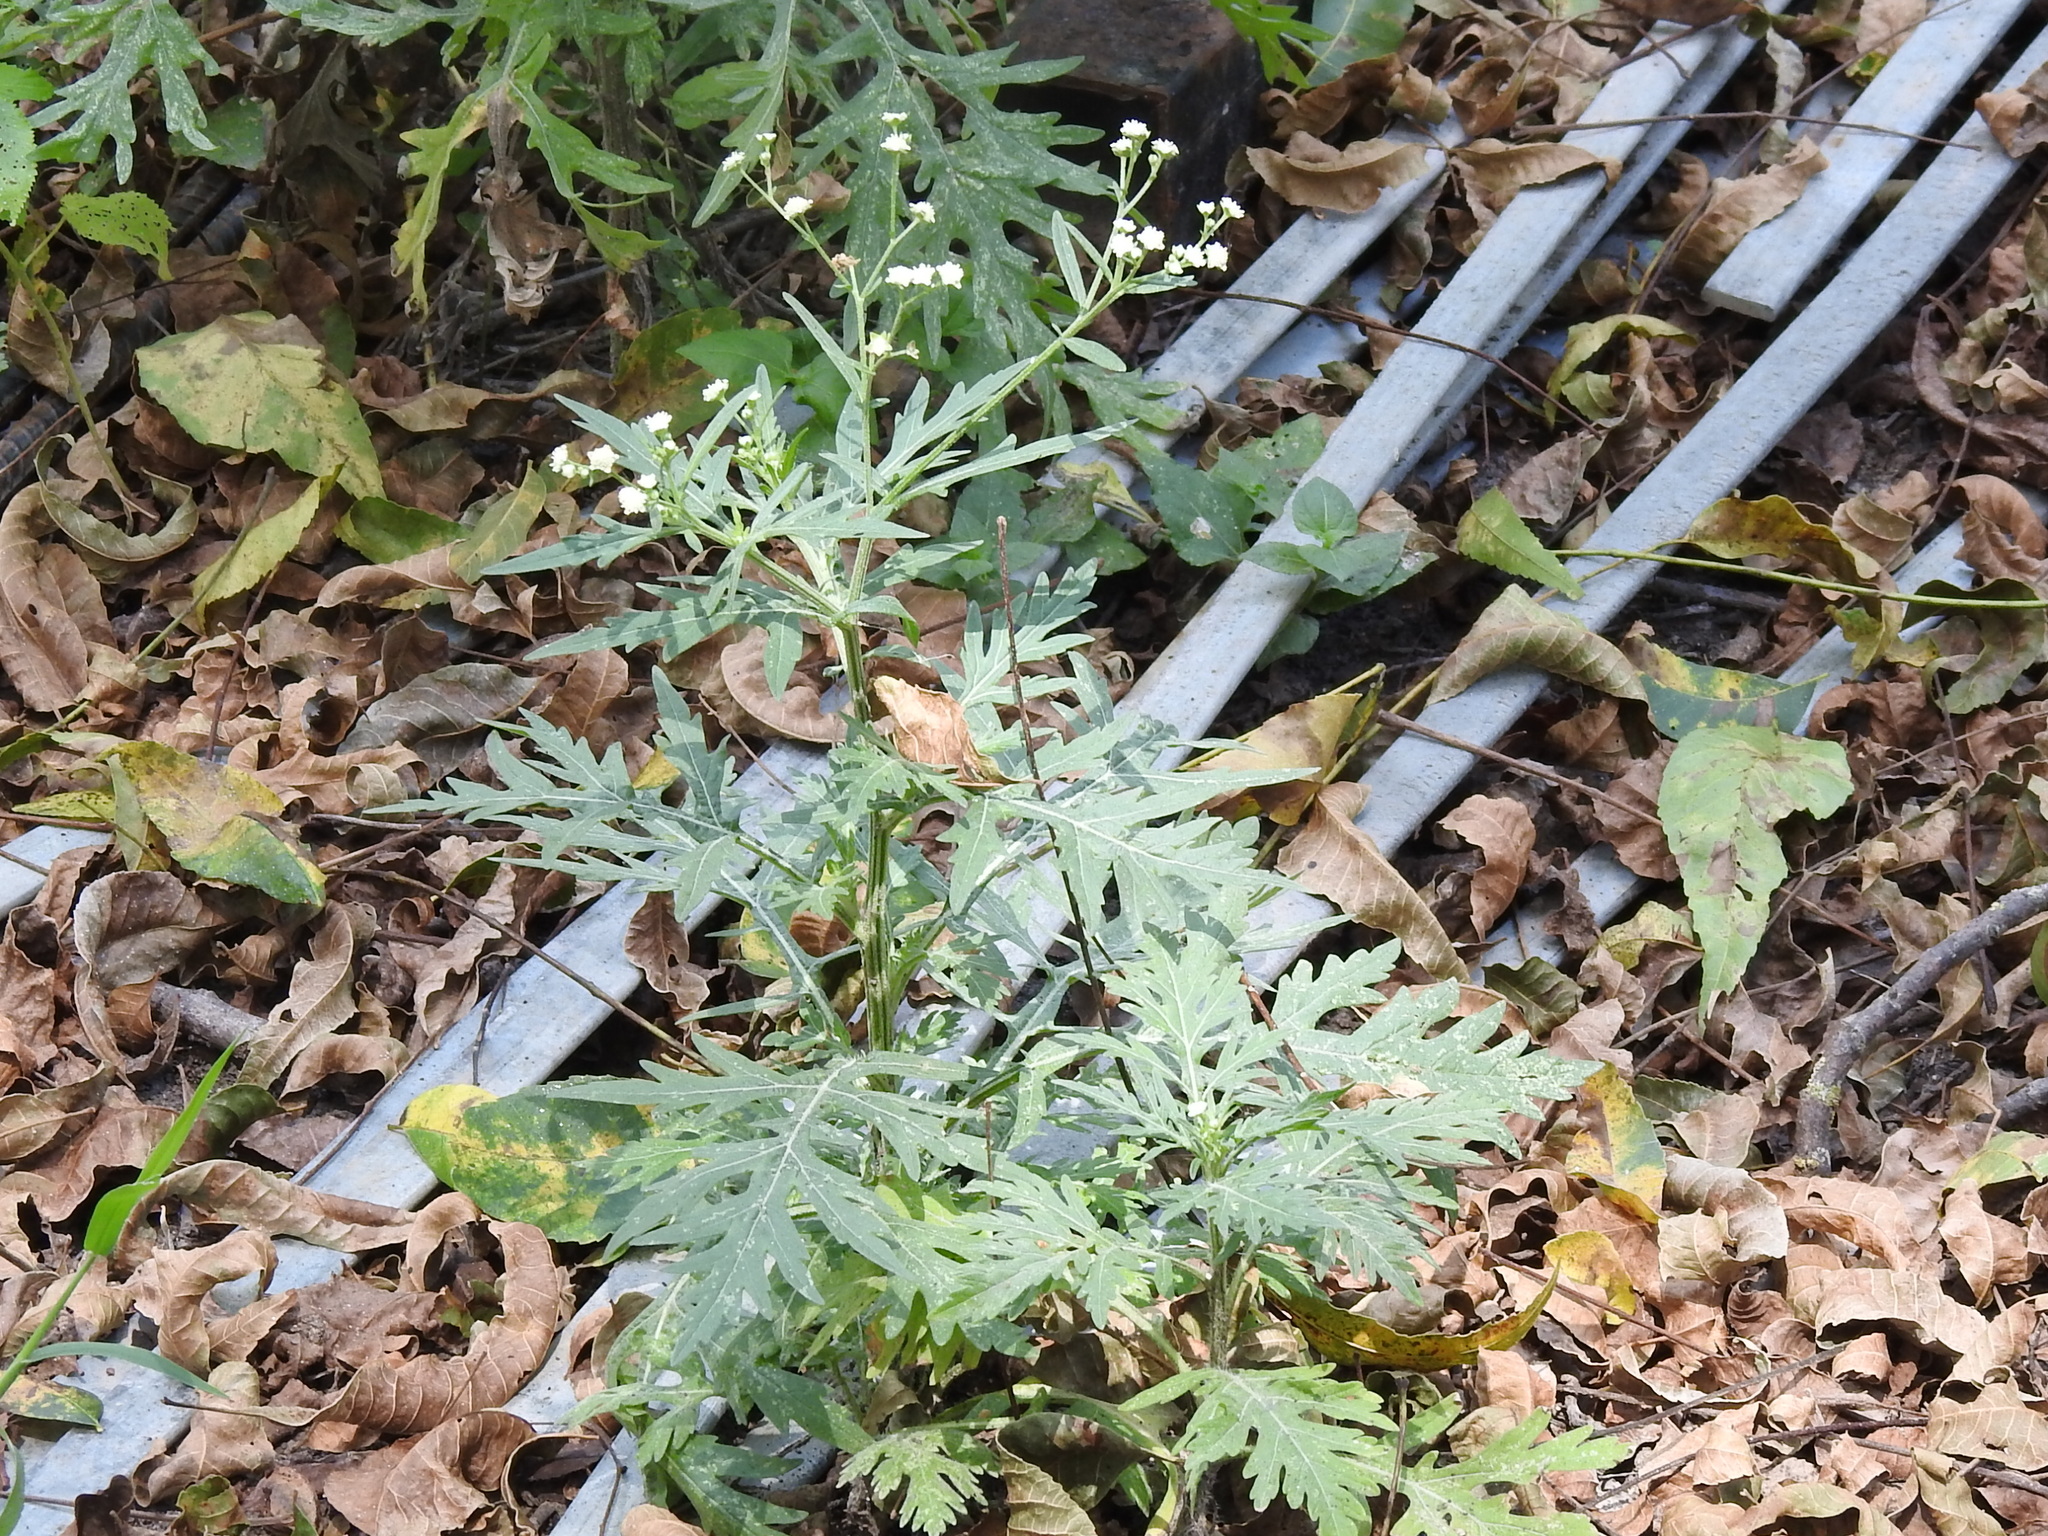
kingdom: Plantae
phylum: Tracheophyta
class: Magnoliopsida
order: Asterales
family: Asteraceae
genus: Parthenium
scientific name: Parthenium hysterophorus
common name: Santa maria feverfew
